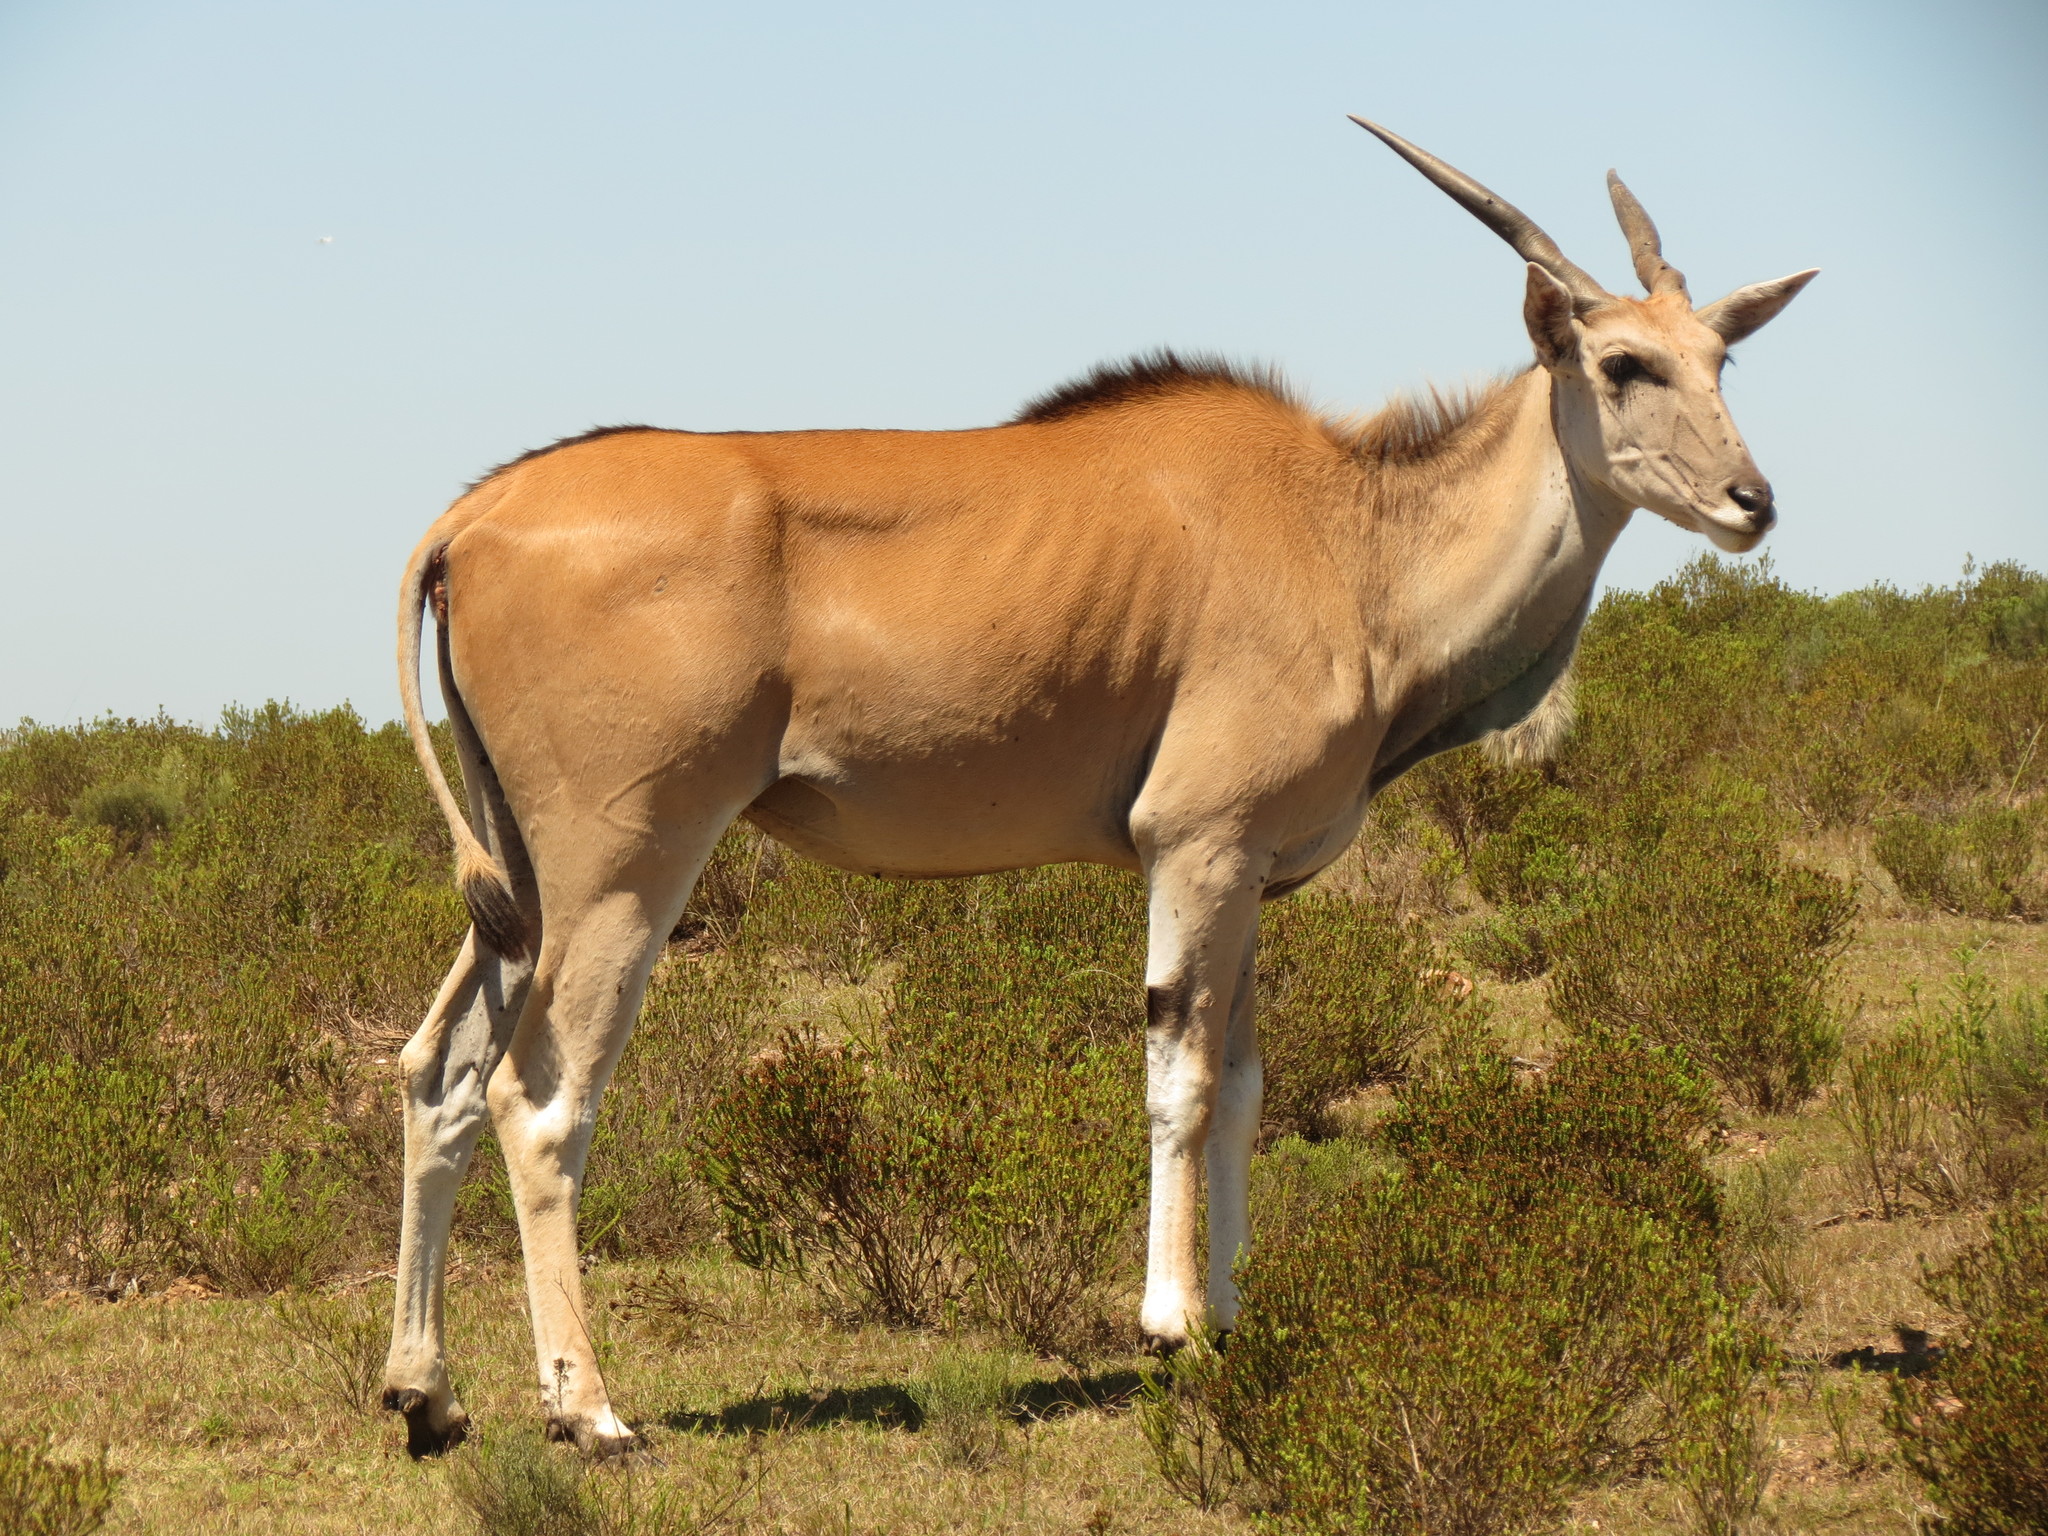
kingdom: Animalia
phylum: Chordata
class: Mammalia
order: Artiodactyla
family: Bovidae
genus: Taurotragus
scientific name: Taurotragus oryx
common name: Common eland
